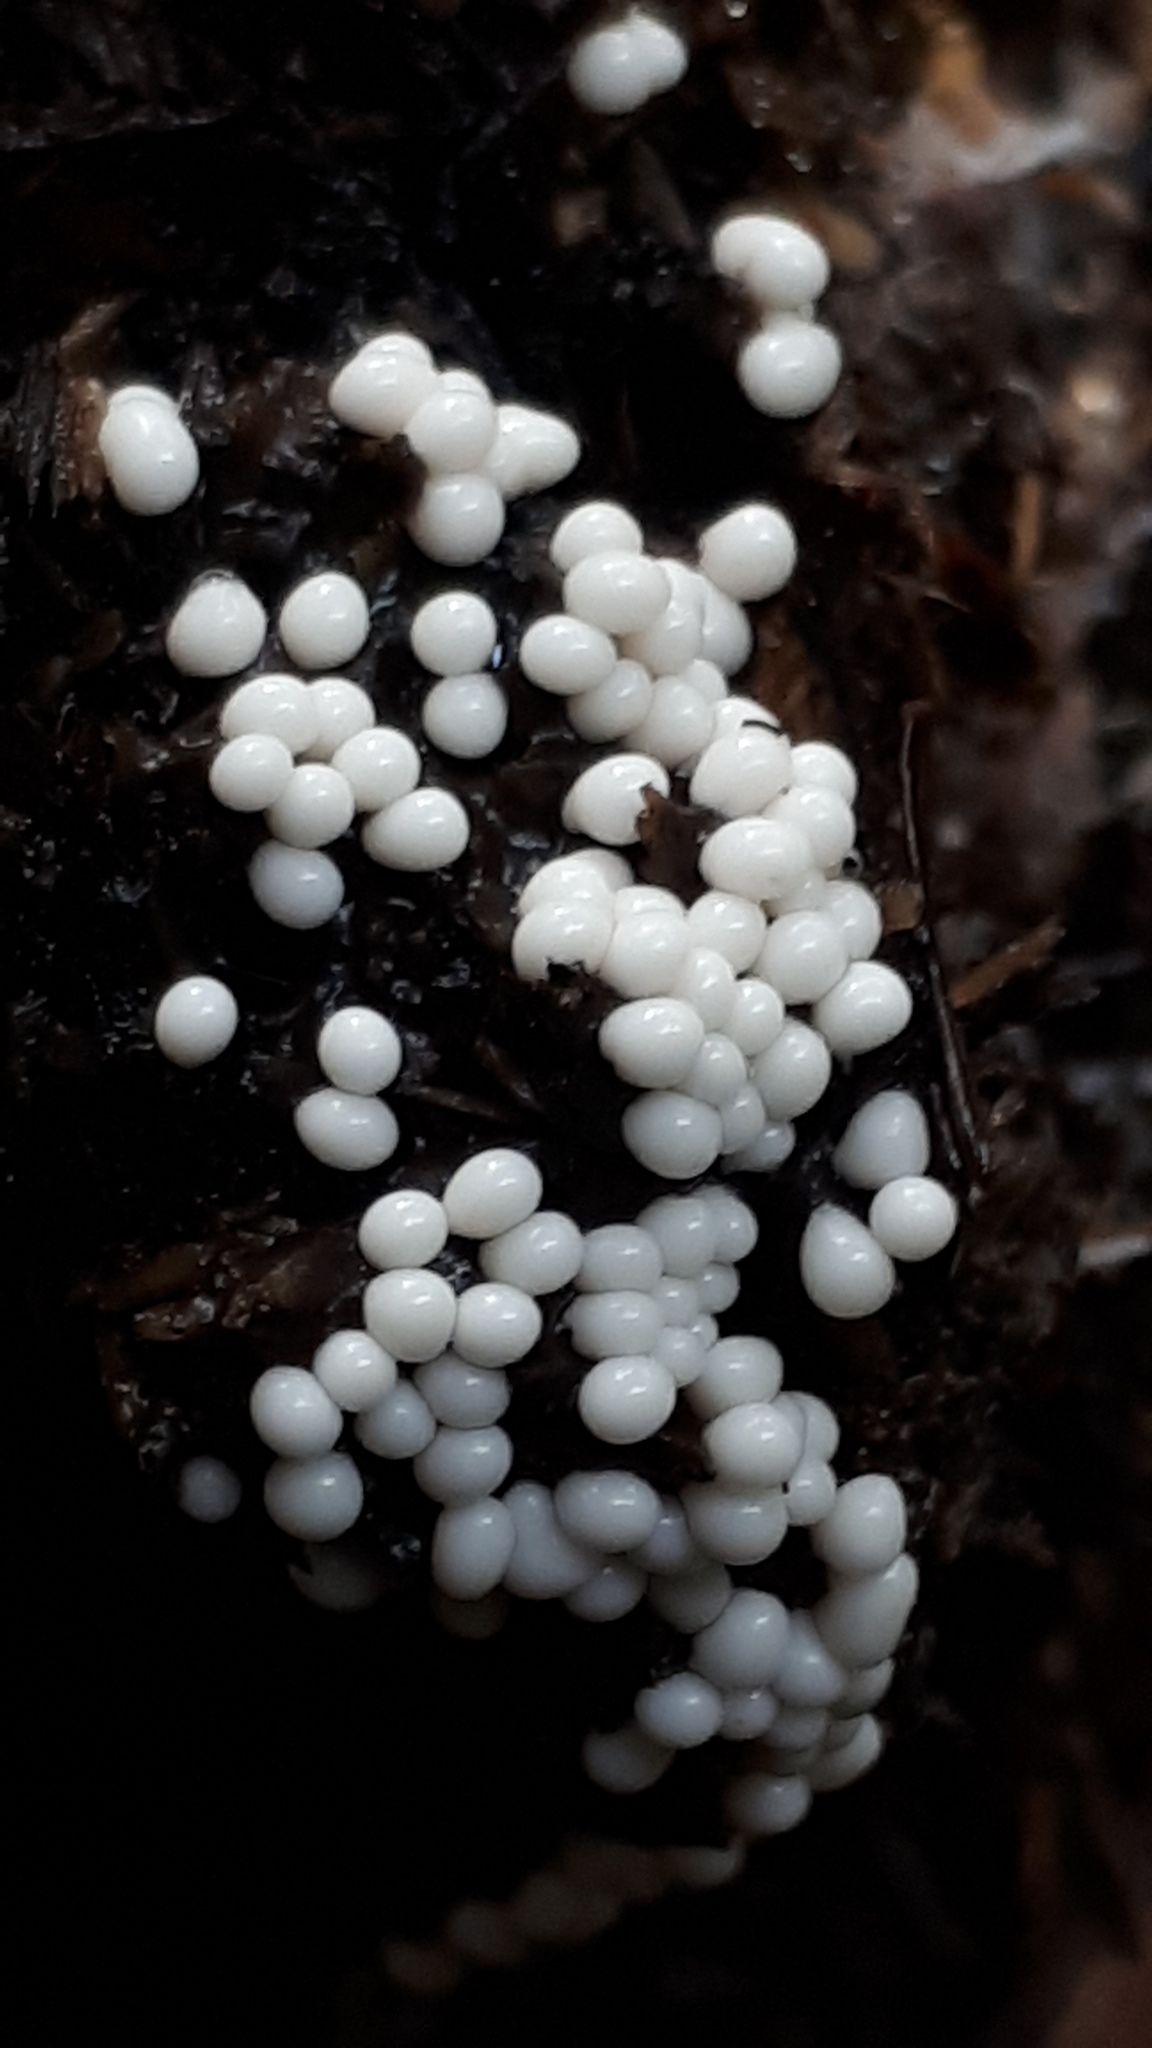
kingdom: Protozoa
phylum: Mycetozoa
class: Myxomycetes
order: Trichiales
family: Trichiaceae
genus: Trichia
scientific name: Trichia varia
